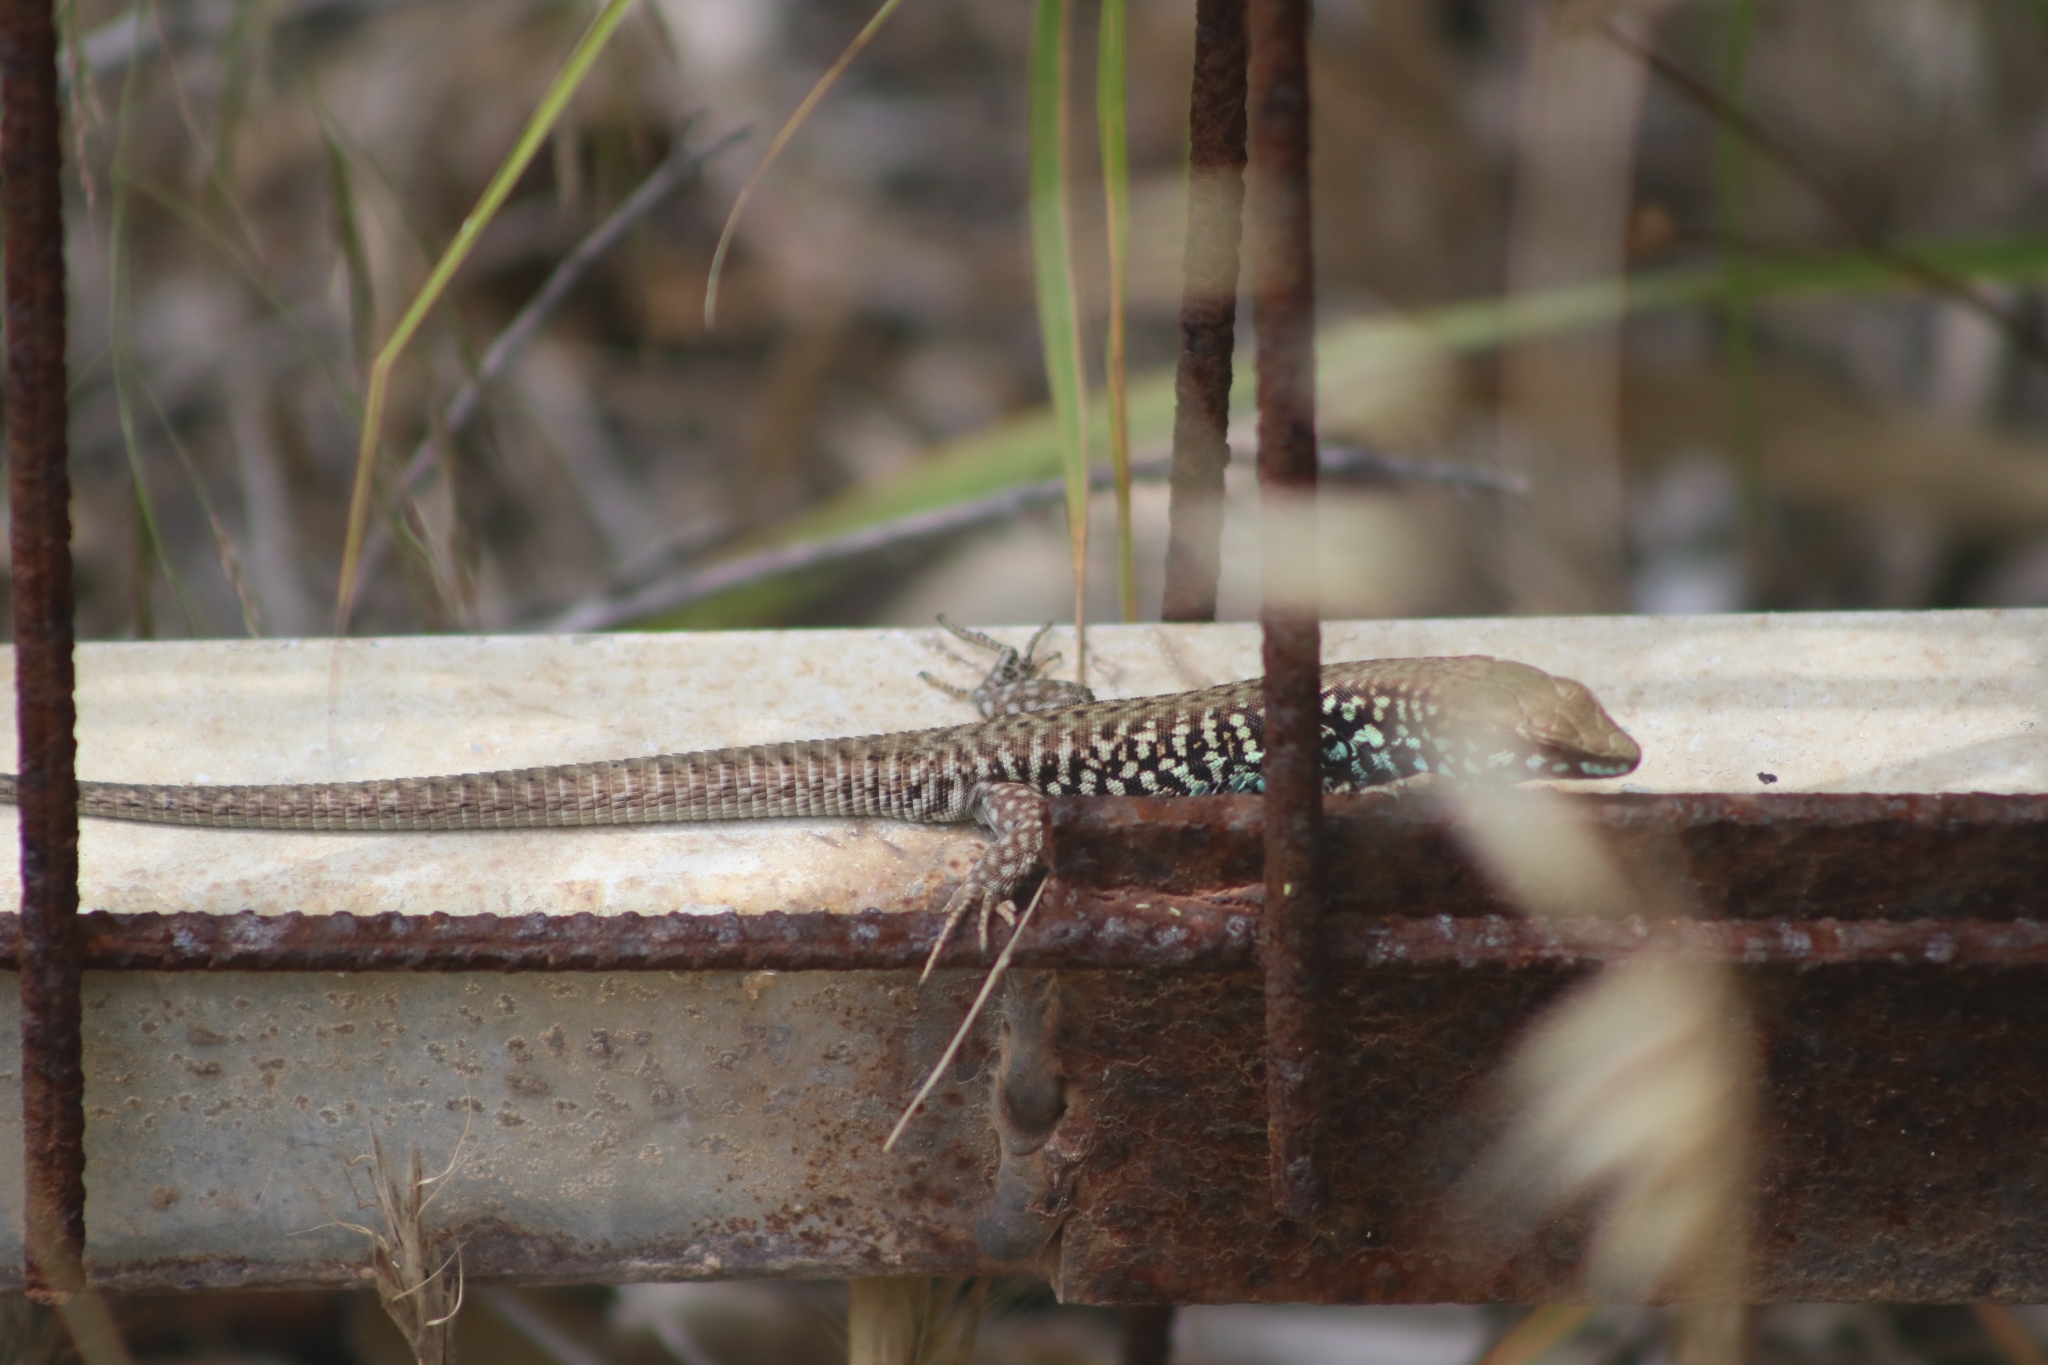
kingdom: Animalia
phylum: Chordata
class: Squamata
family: Lacertidae
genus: Podarcis
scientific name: Podarcis milensis
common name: Milos wall lizard
